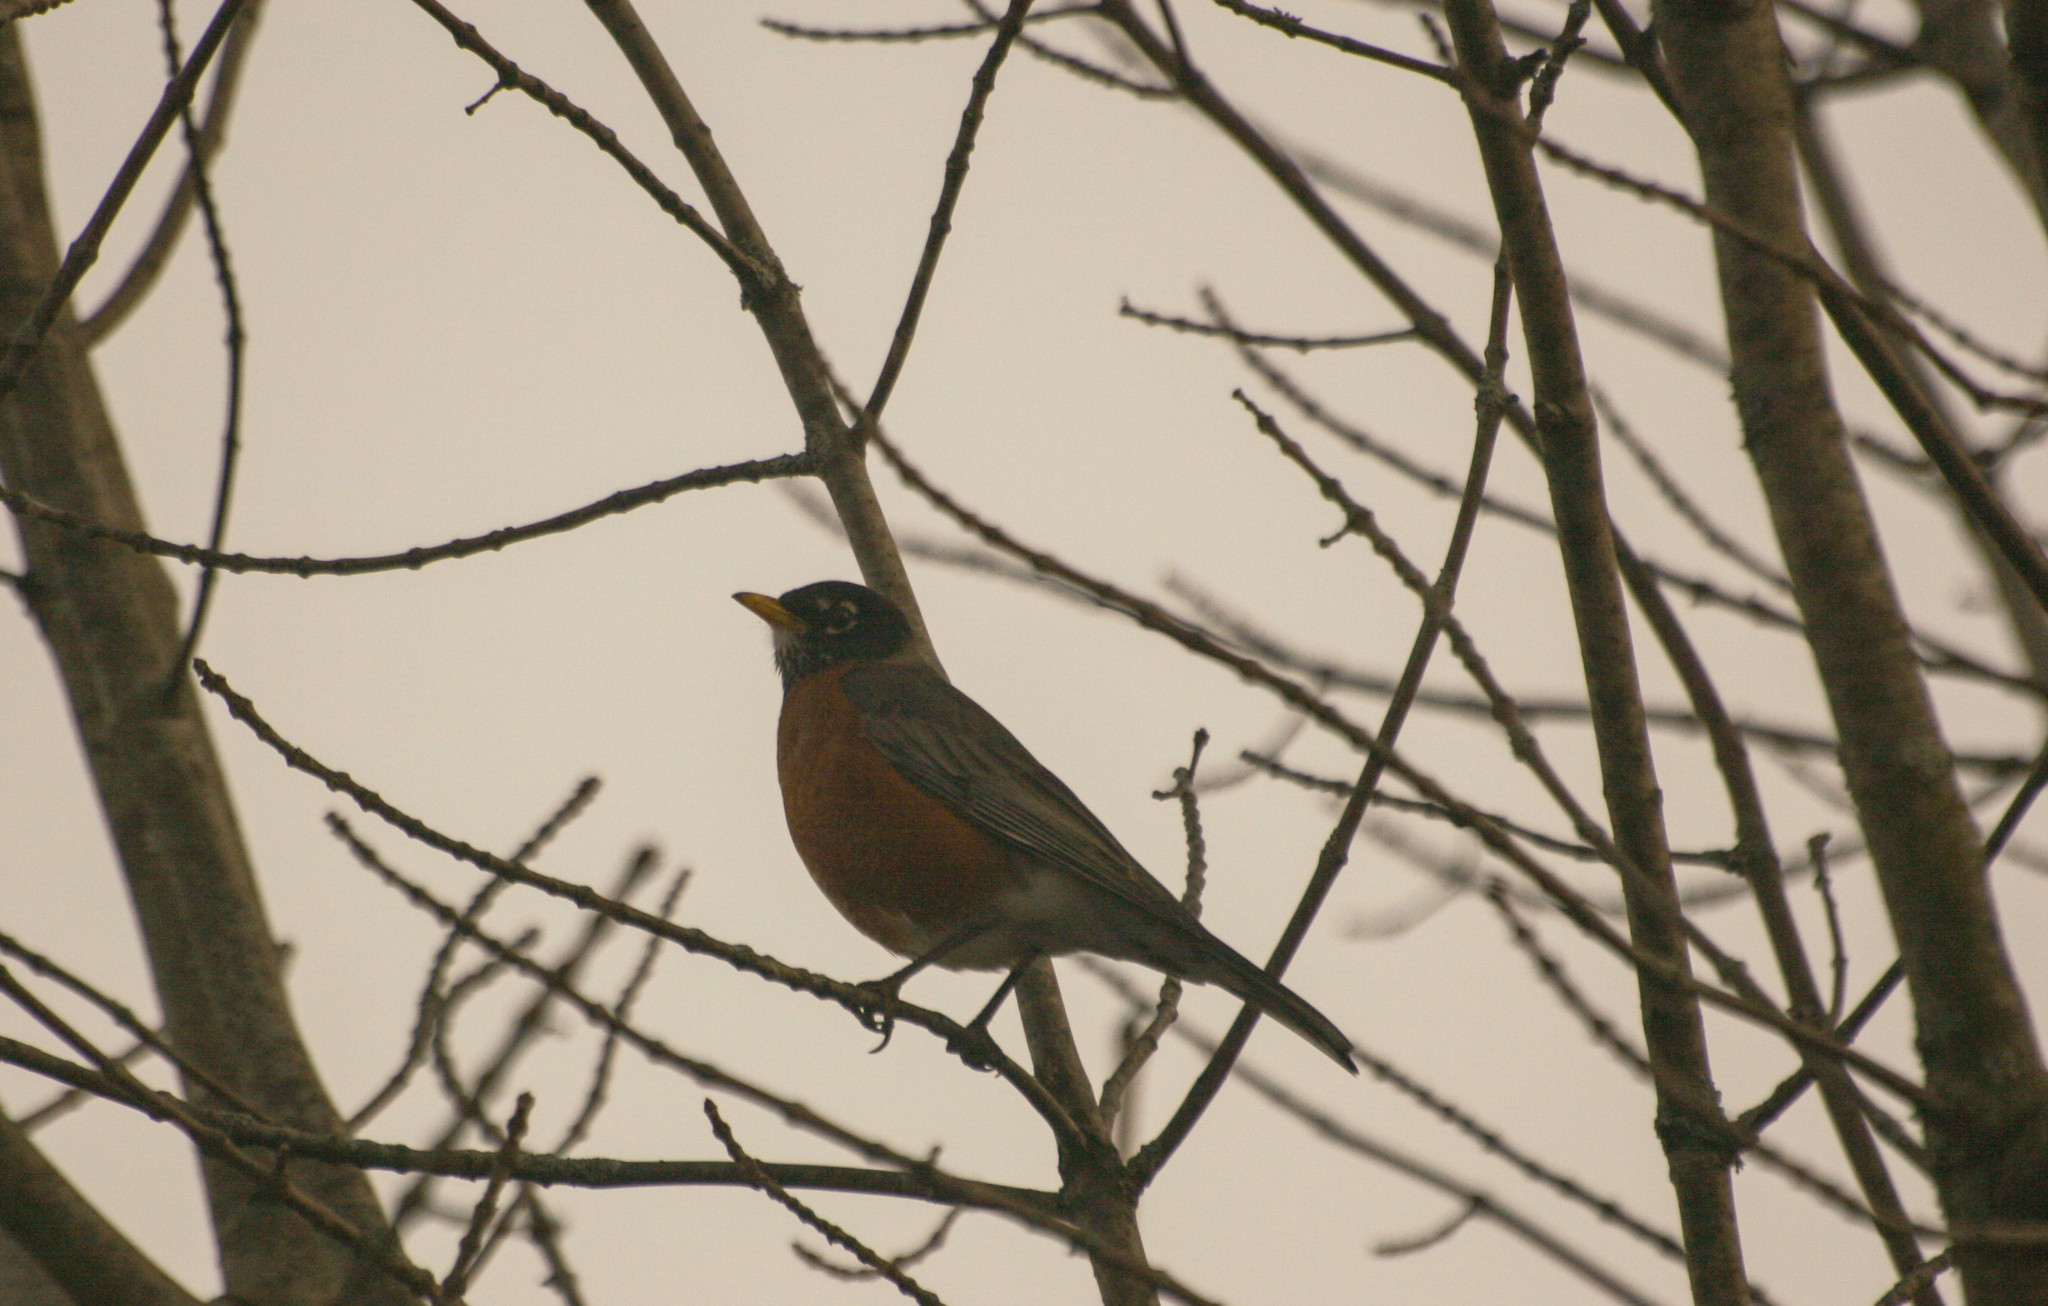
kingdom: Animalia
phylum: Chordata
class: Aves
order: Passeriformes
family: Turdidae
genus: Turdus
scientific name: Turdus migratorius
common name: American robin
